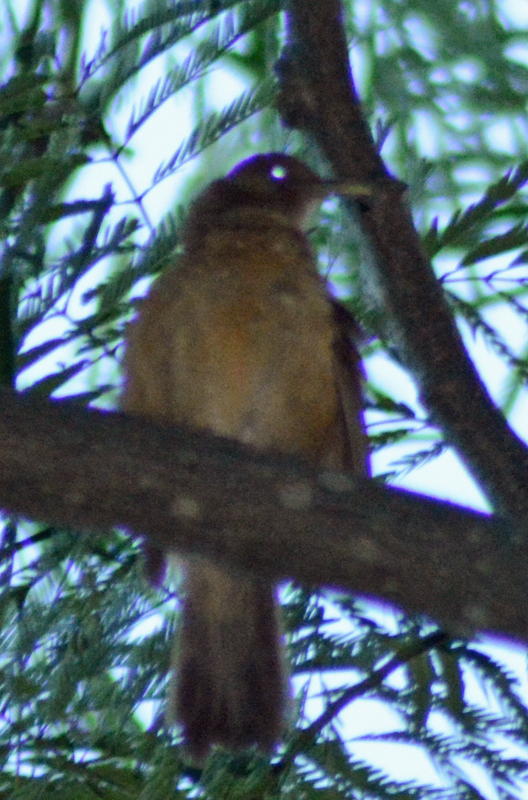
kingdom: Animalia
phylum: Chordata
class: Aves
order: Passeriformes
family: Turdidae
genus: Turdus
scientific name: Turdus grayi
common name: Clay-colored thrush
